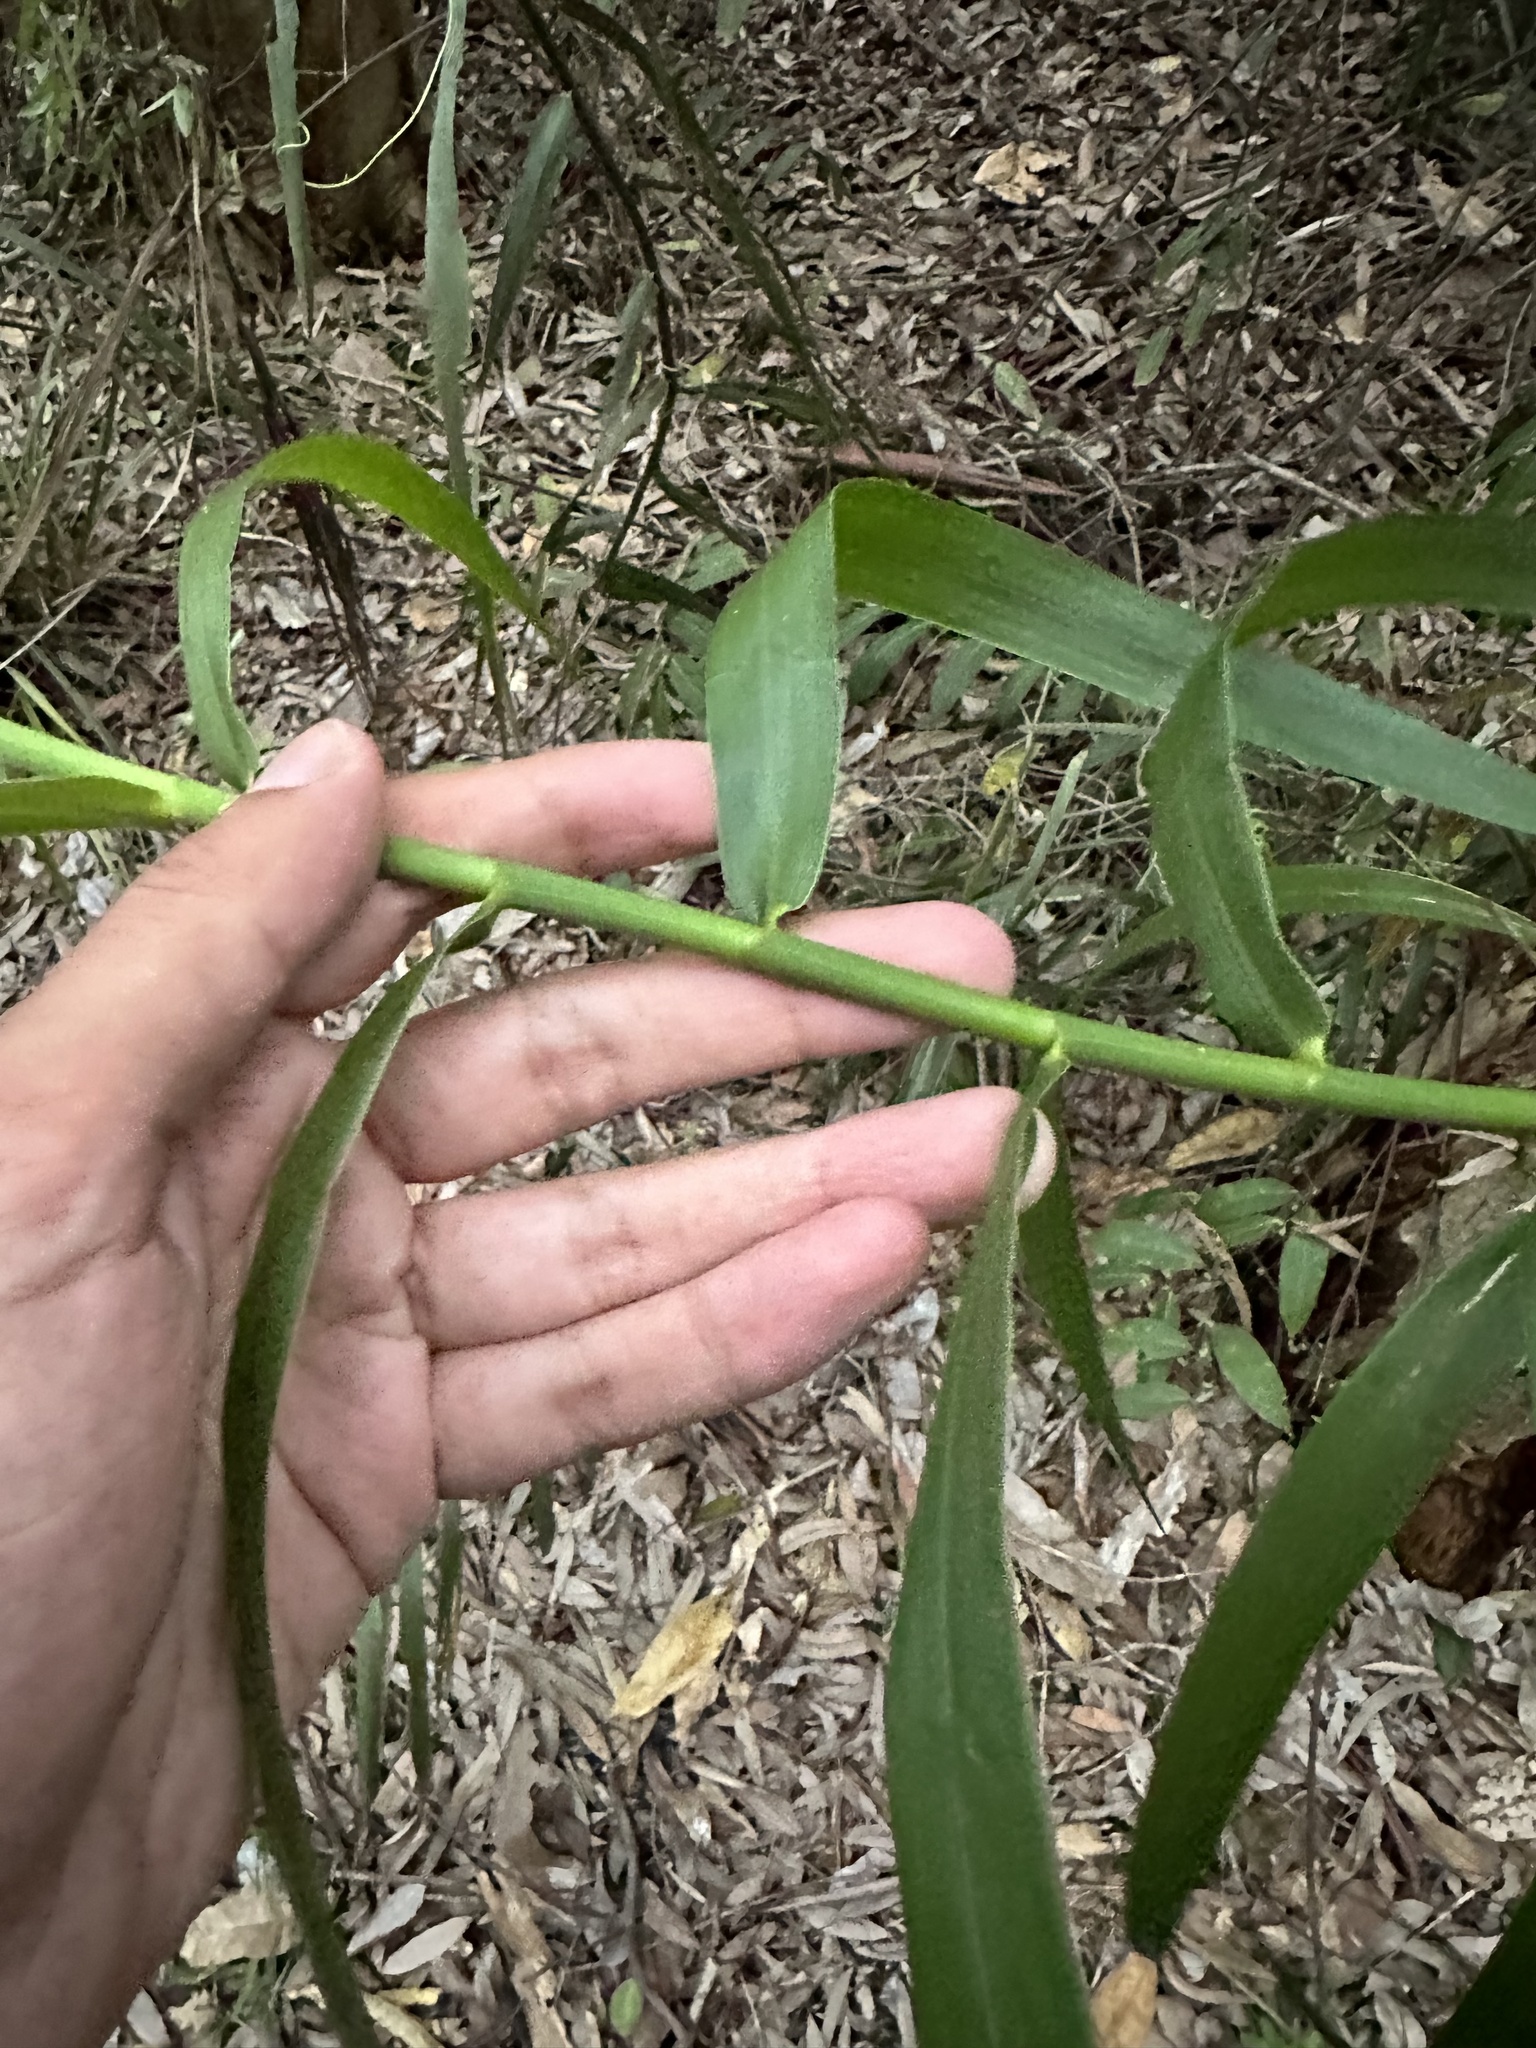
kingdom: Plantae
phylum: Tracheophyta
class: Liliopsida
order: Poales
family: Flagellariaceae
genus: Flagellaria
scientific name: Flagellaria indica
